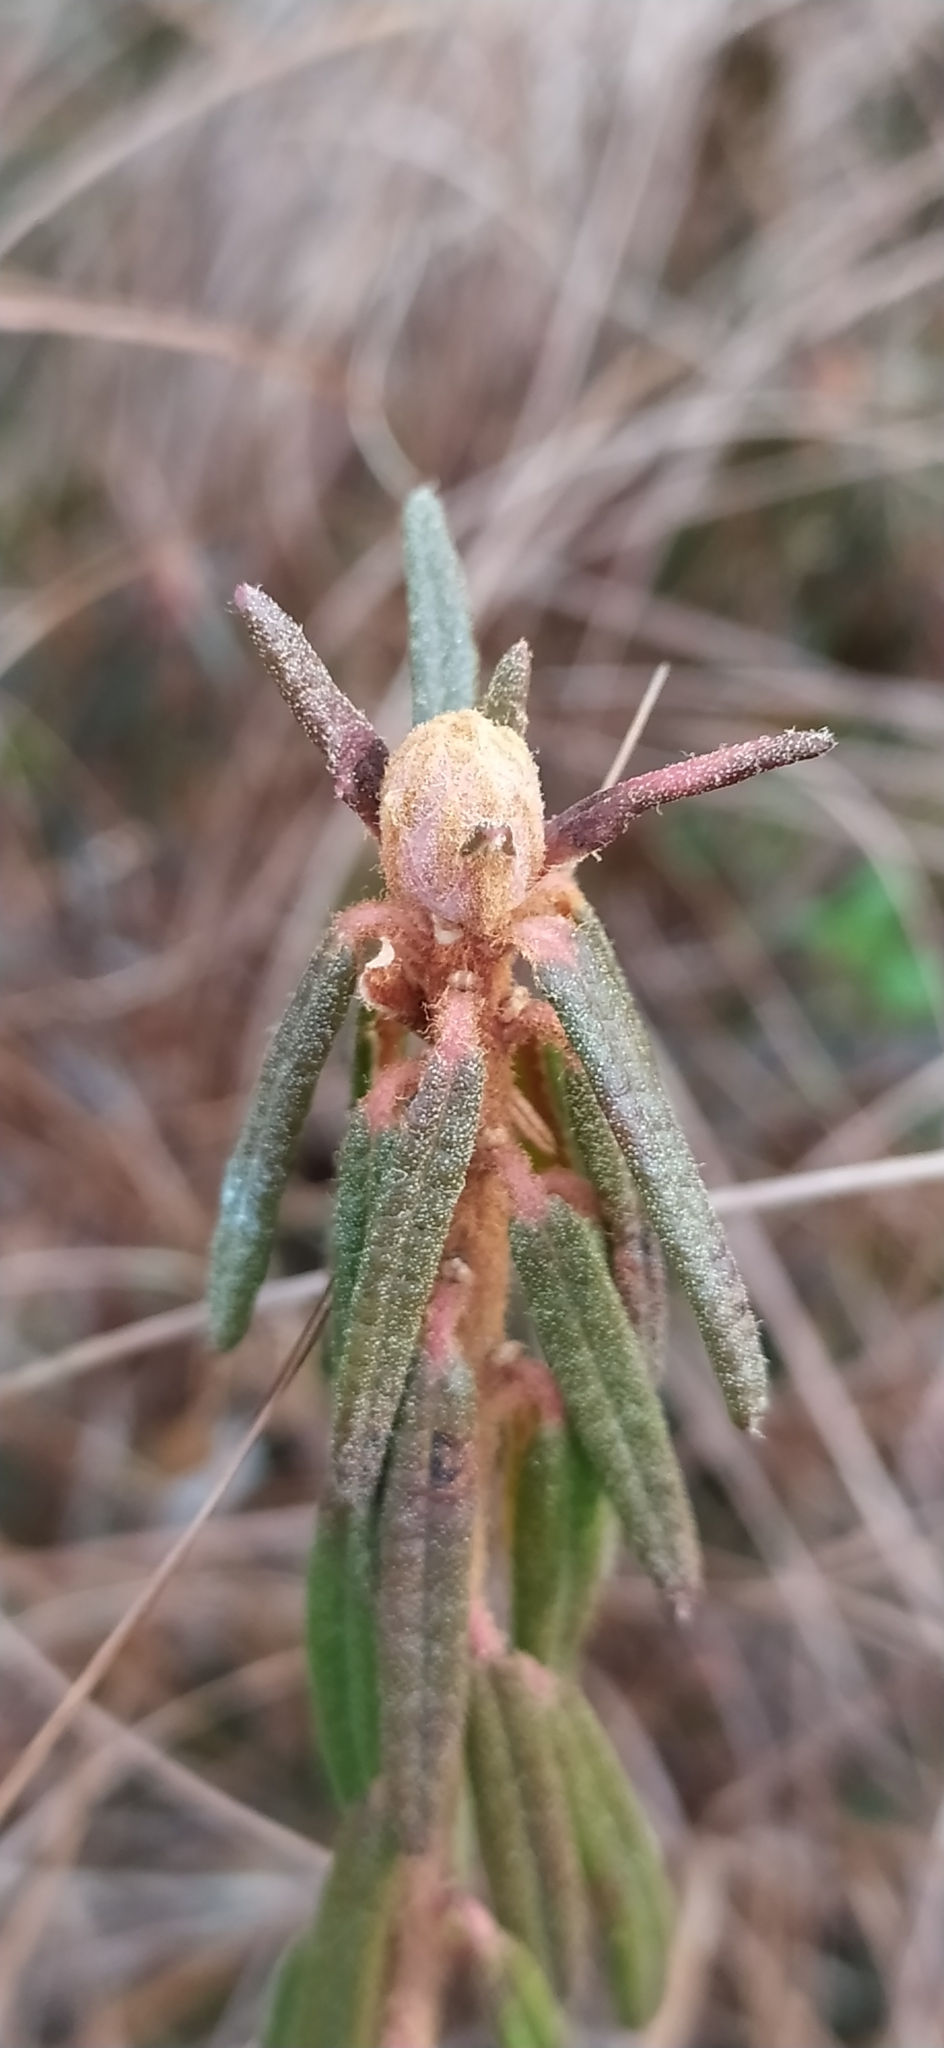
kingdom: Plantae
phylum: Tracheophyta
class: Magnoliopsida
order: Ericales
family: Ericaceae
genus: Rhododendron
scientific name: Rhododendron tomentosum
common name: Marsh labrador tea
